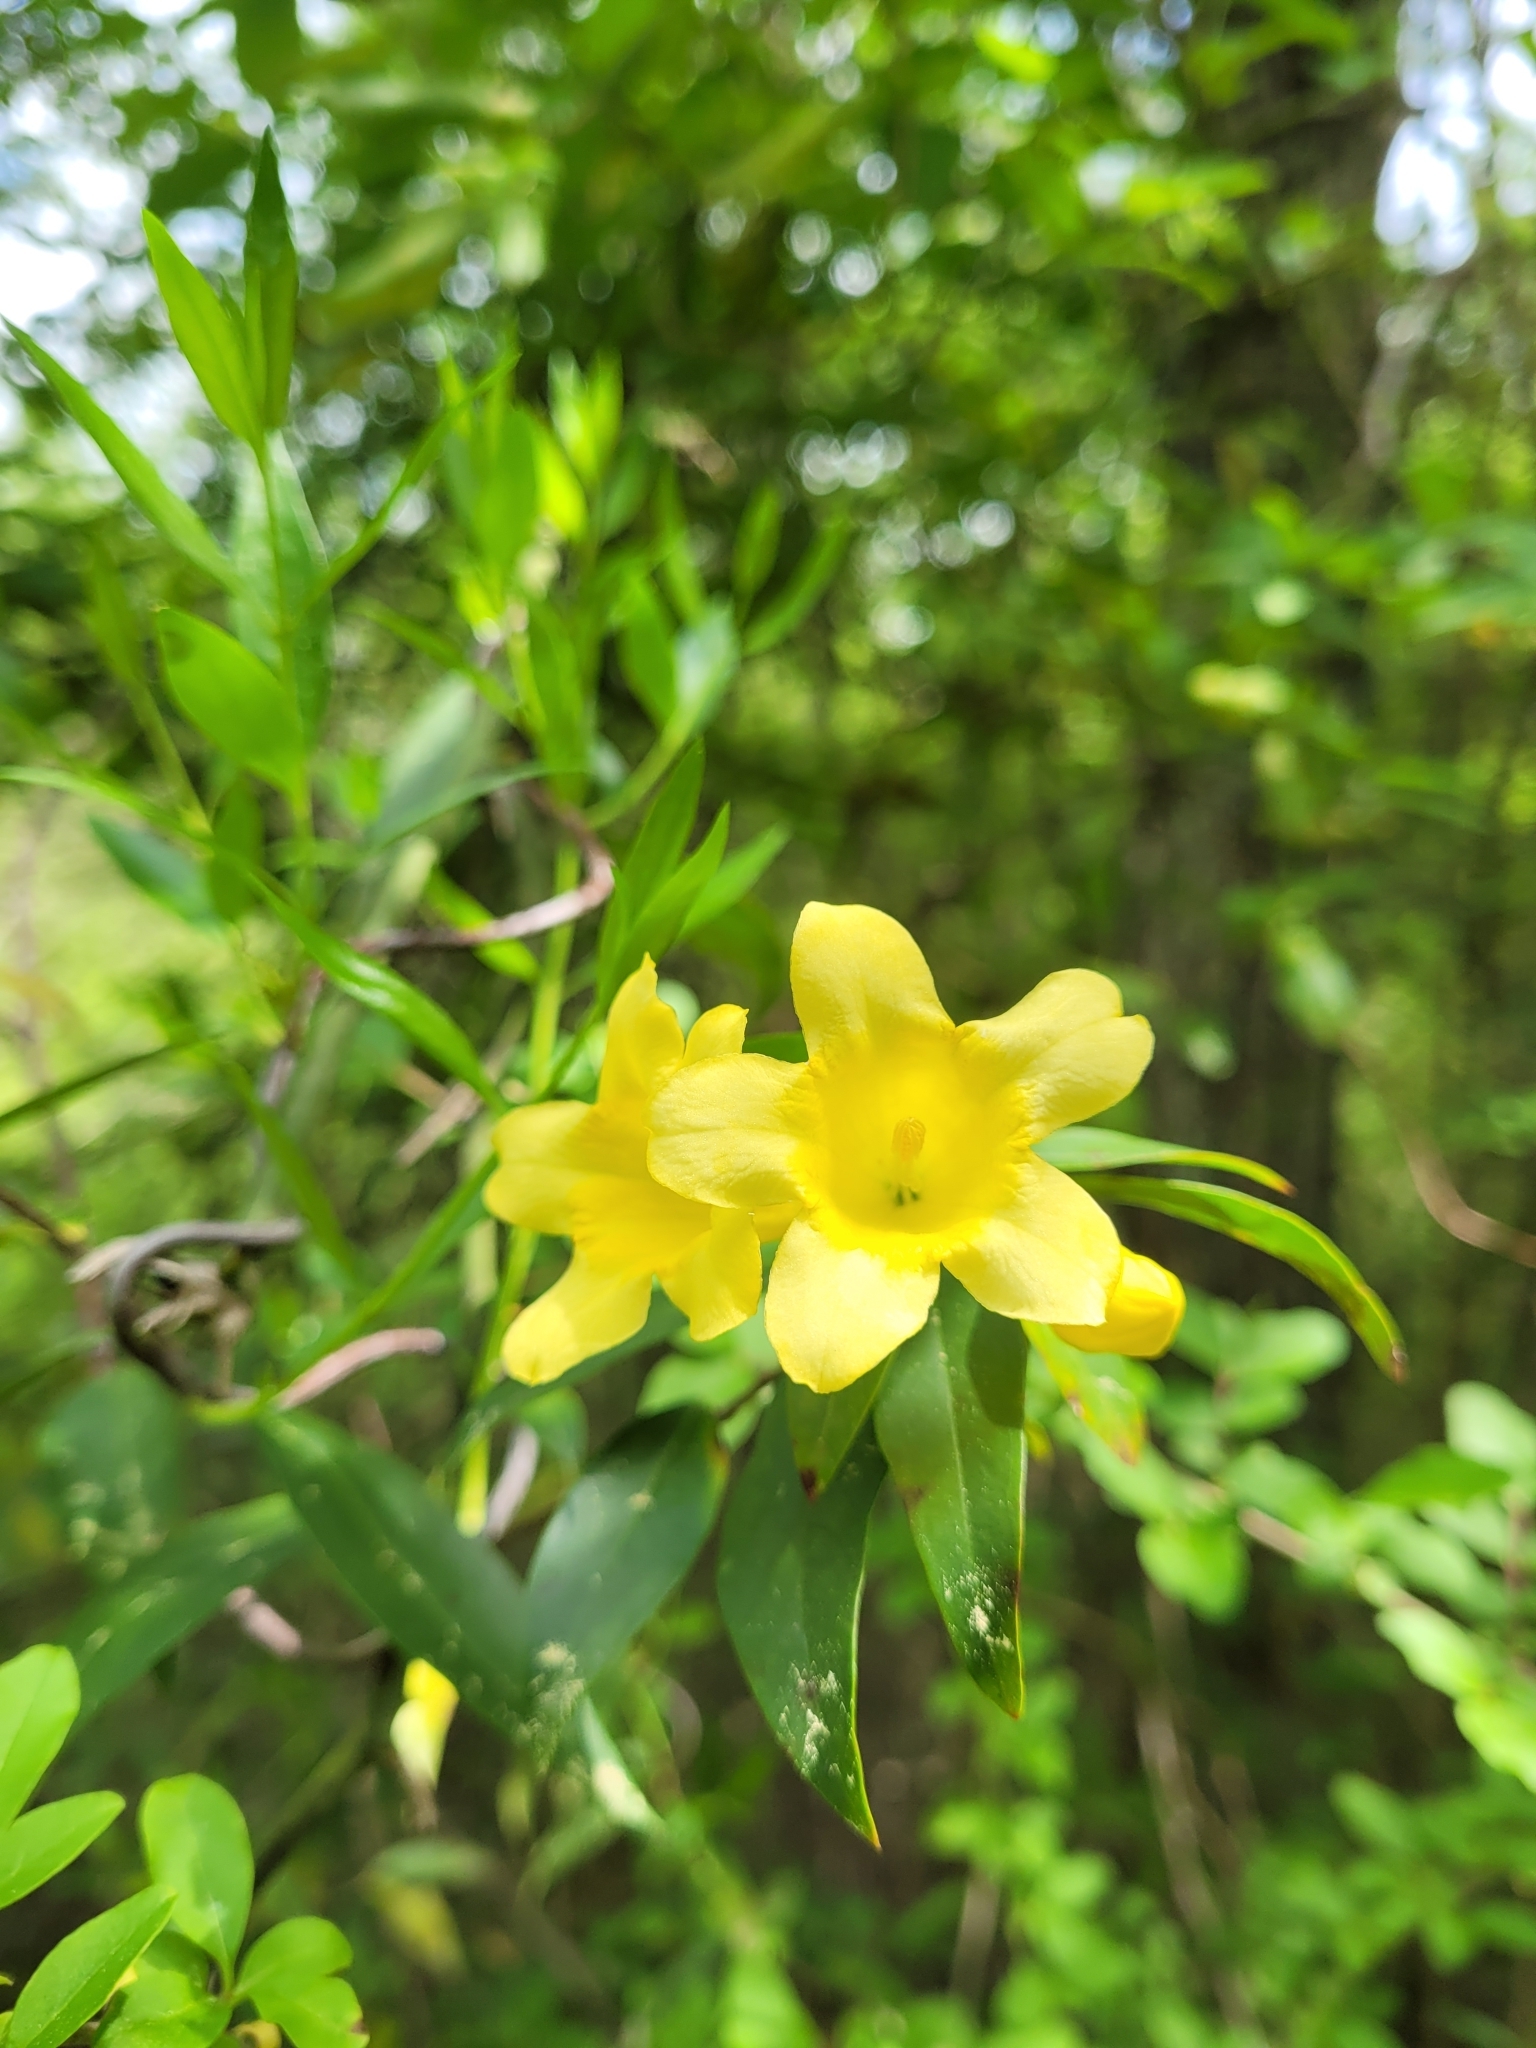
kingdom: Plantae
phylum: Tracheophyta
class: Magnoliopsida
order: Gentianales
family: Gelsemiaceae
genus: Gelsemium
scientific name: Gelsemium sempervirens
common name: Carolina-jasmine
